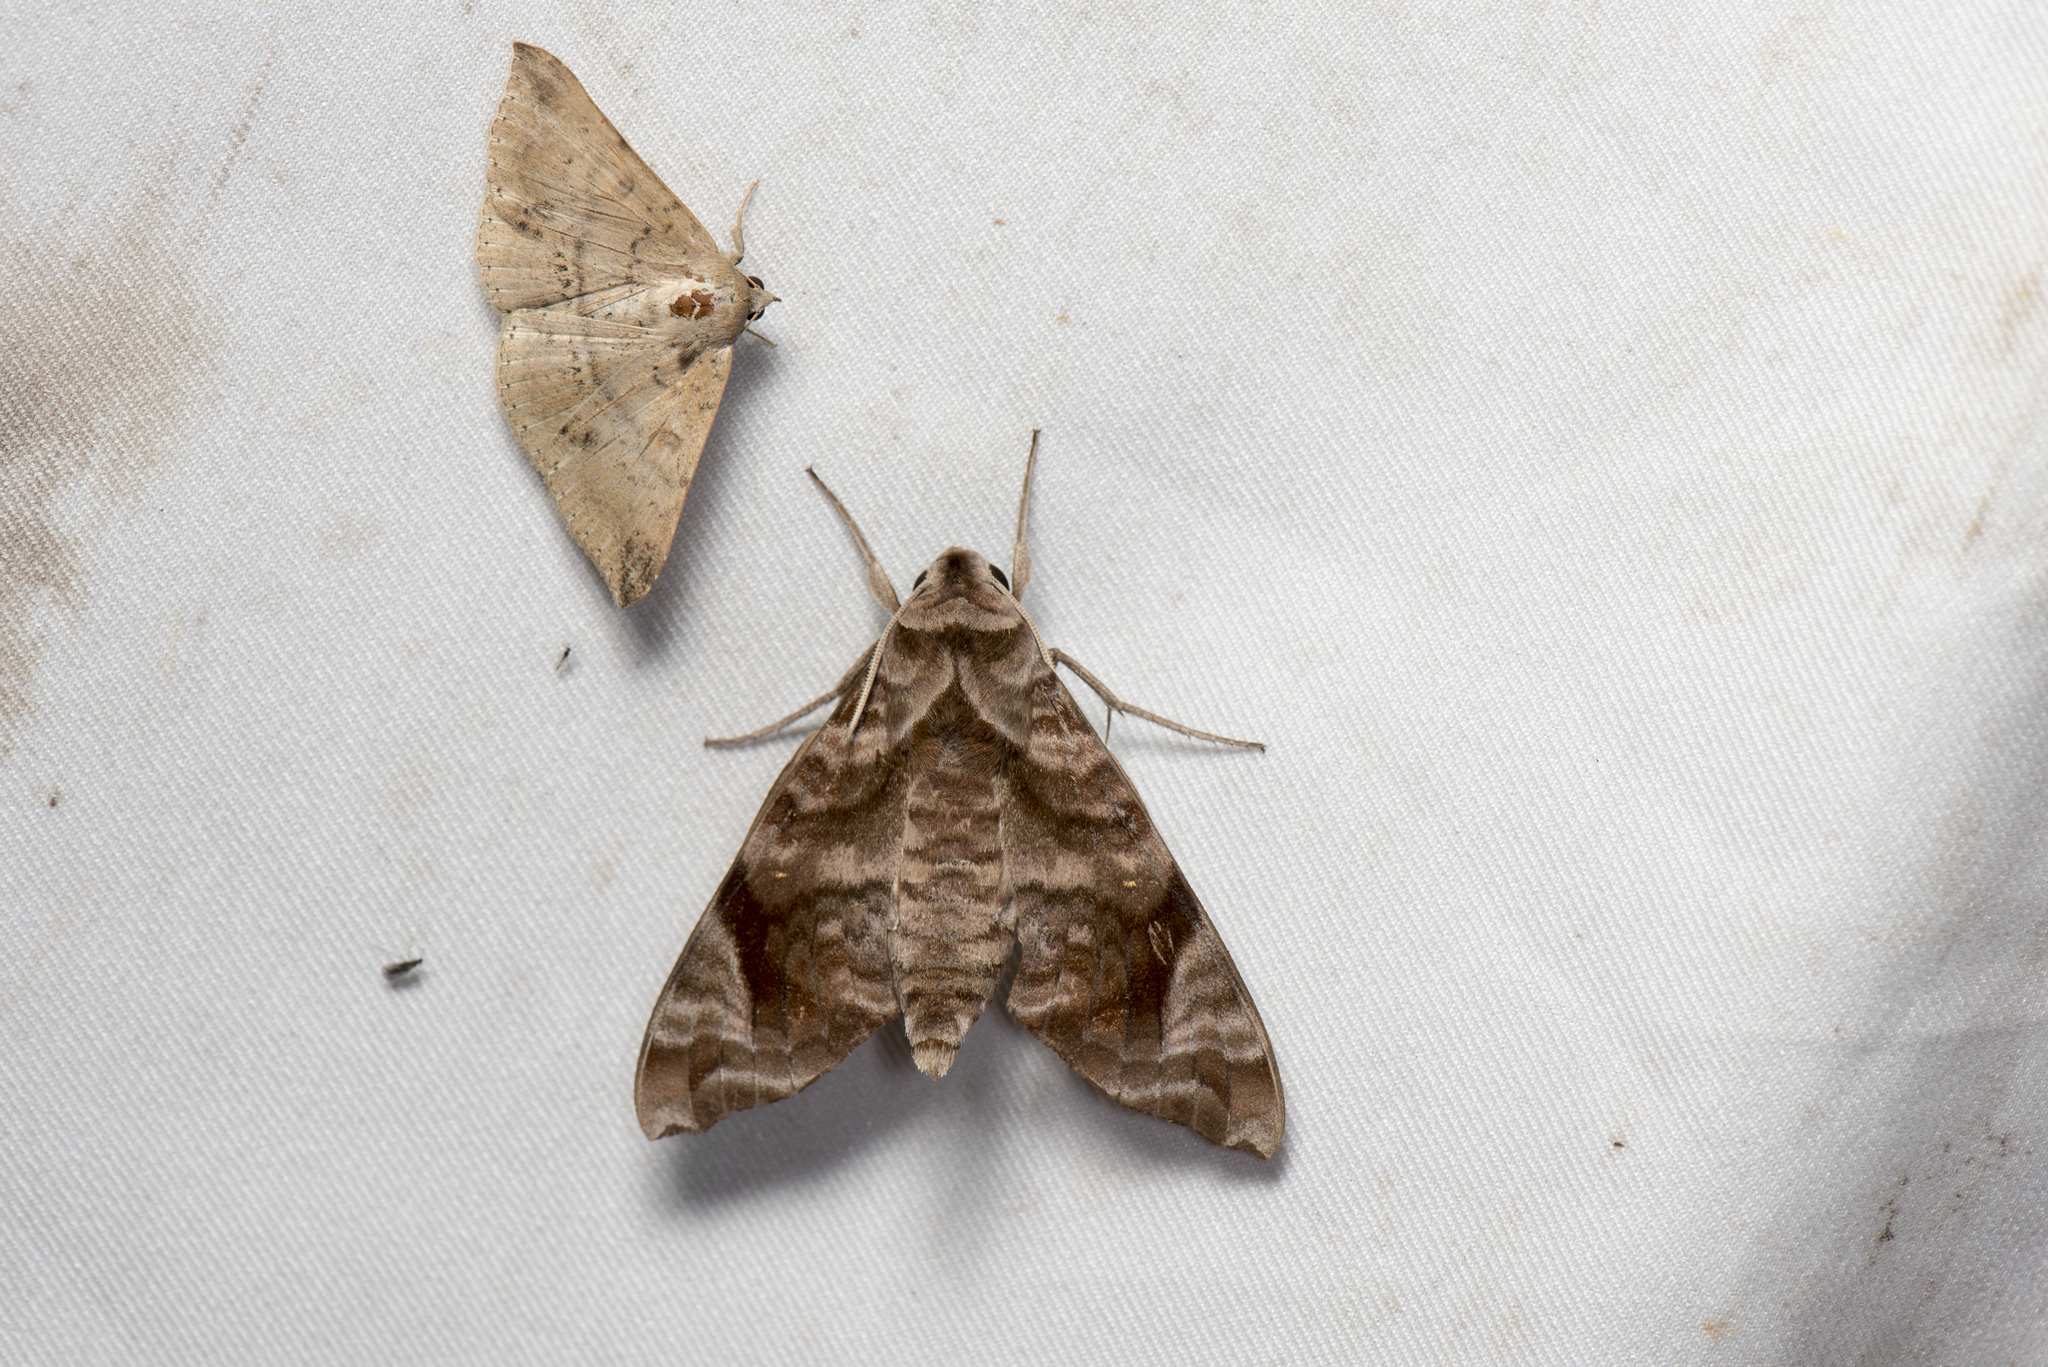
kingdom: Animalia
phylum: Arthropoda
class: Insecta
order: Lepidoptera
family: Sphingidae
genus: Acosmeryx
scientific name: Acosmeryx castanea
